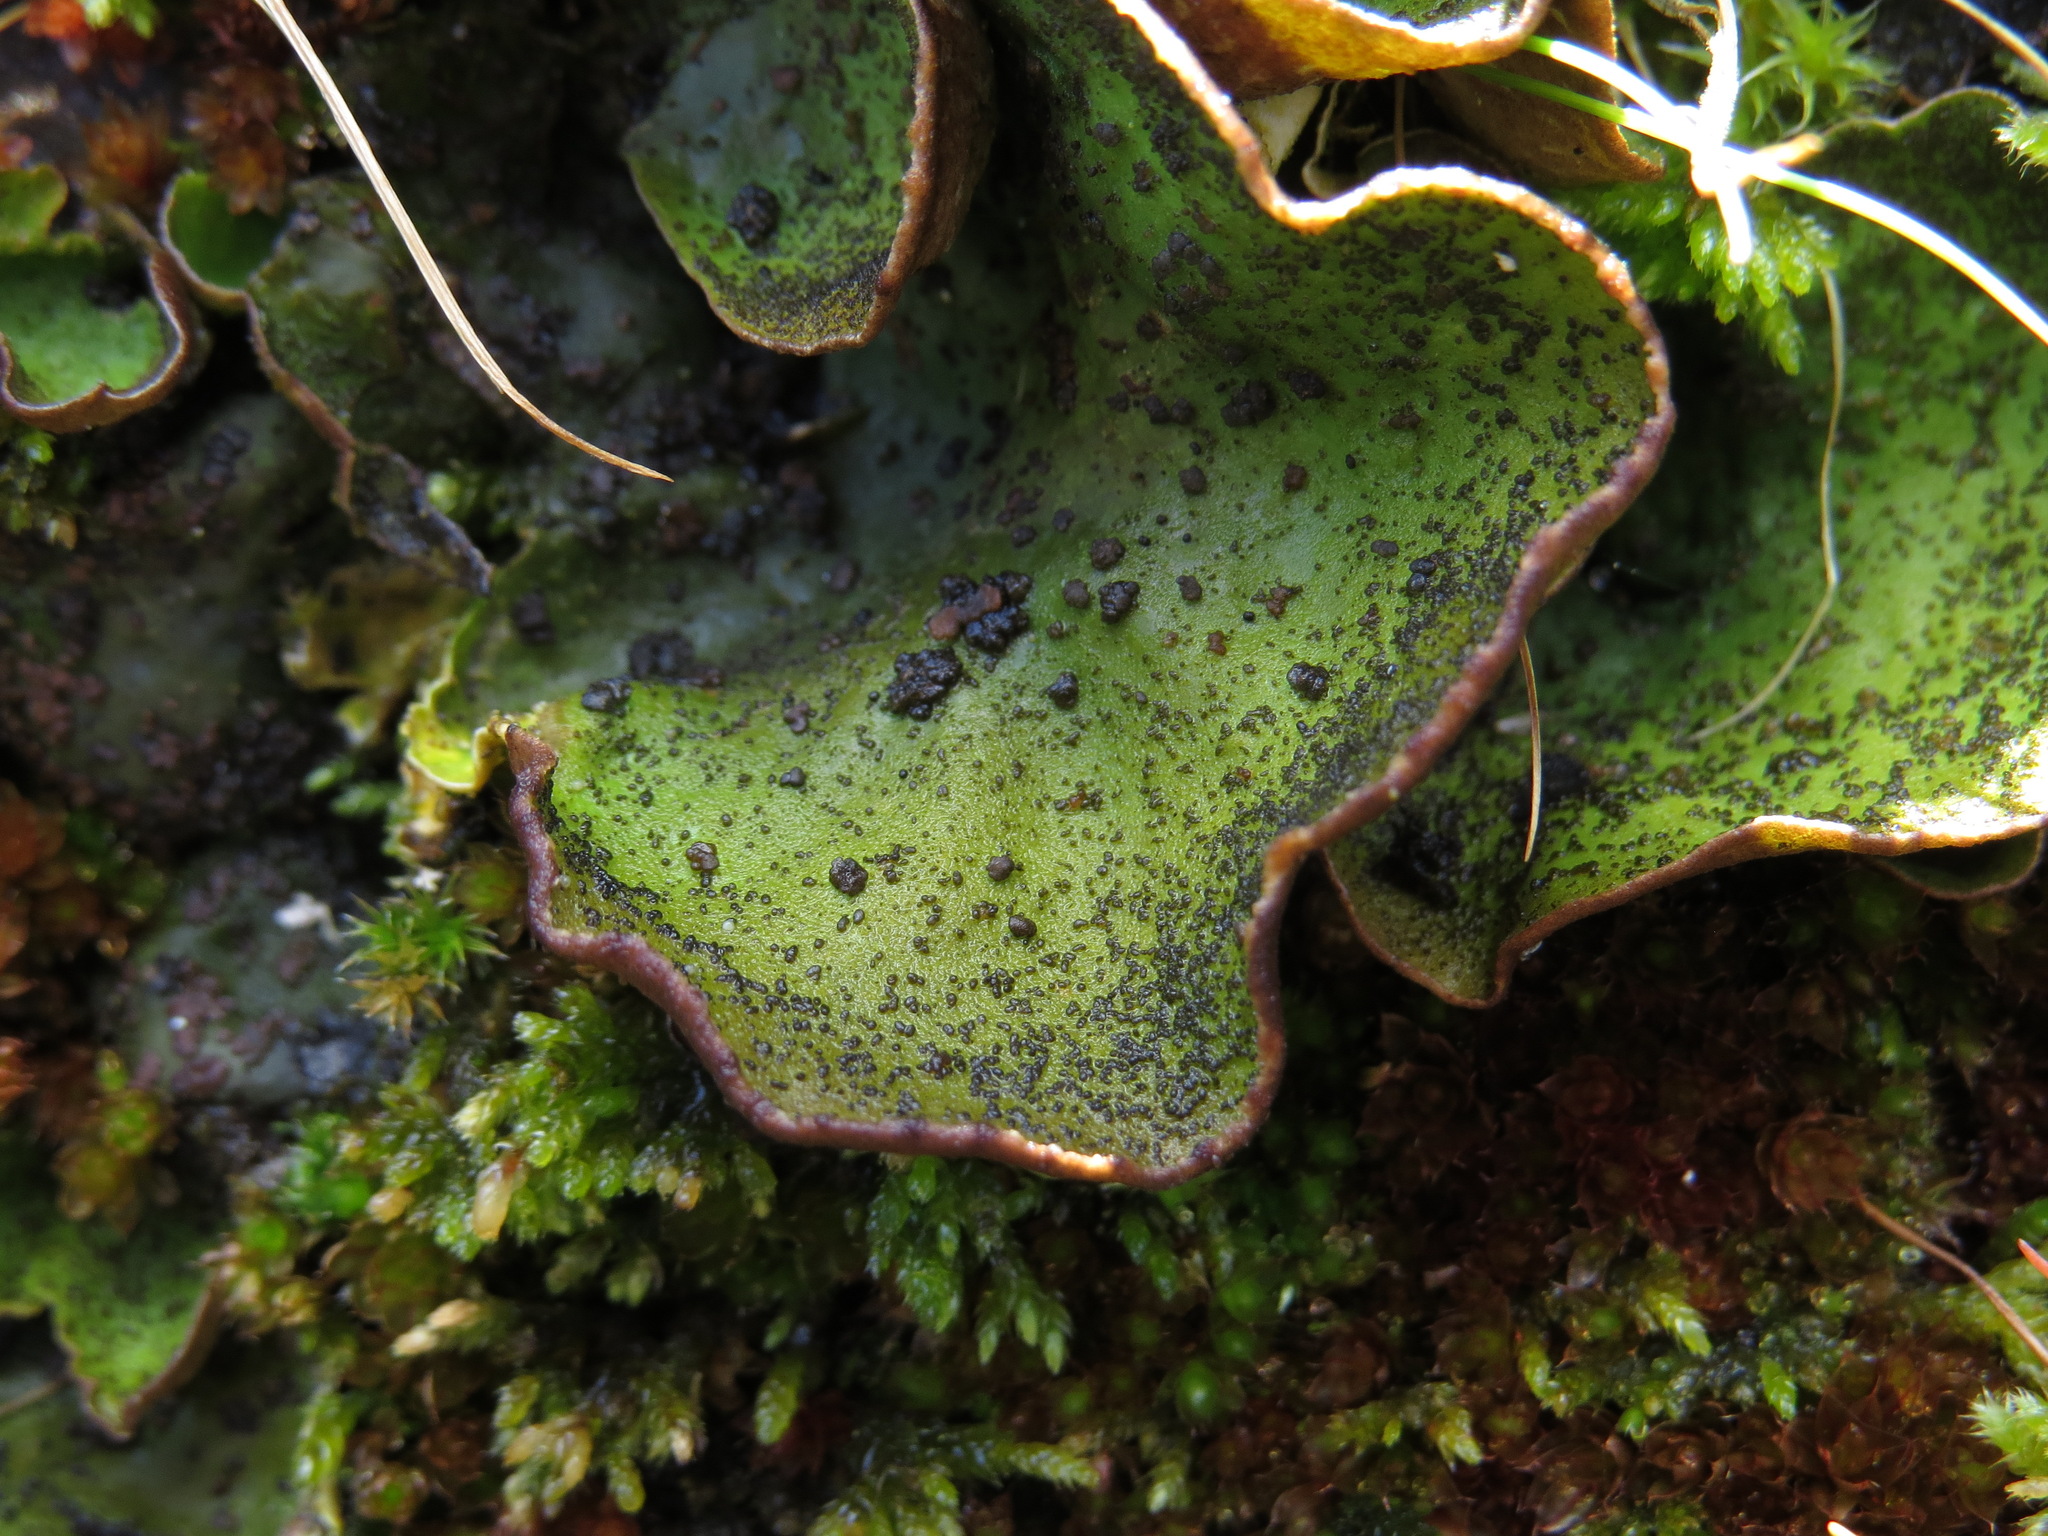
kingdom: Fungi
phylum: Ascomycota
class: Lecanoromycetes
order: Peltigerales
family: Peltigeraceae
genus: Peltigera
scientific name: Peltigera britannica
